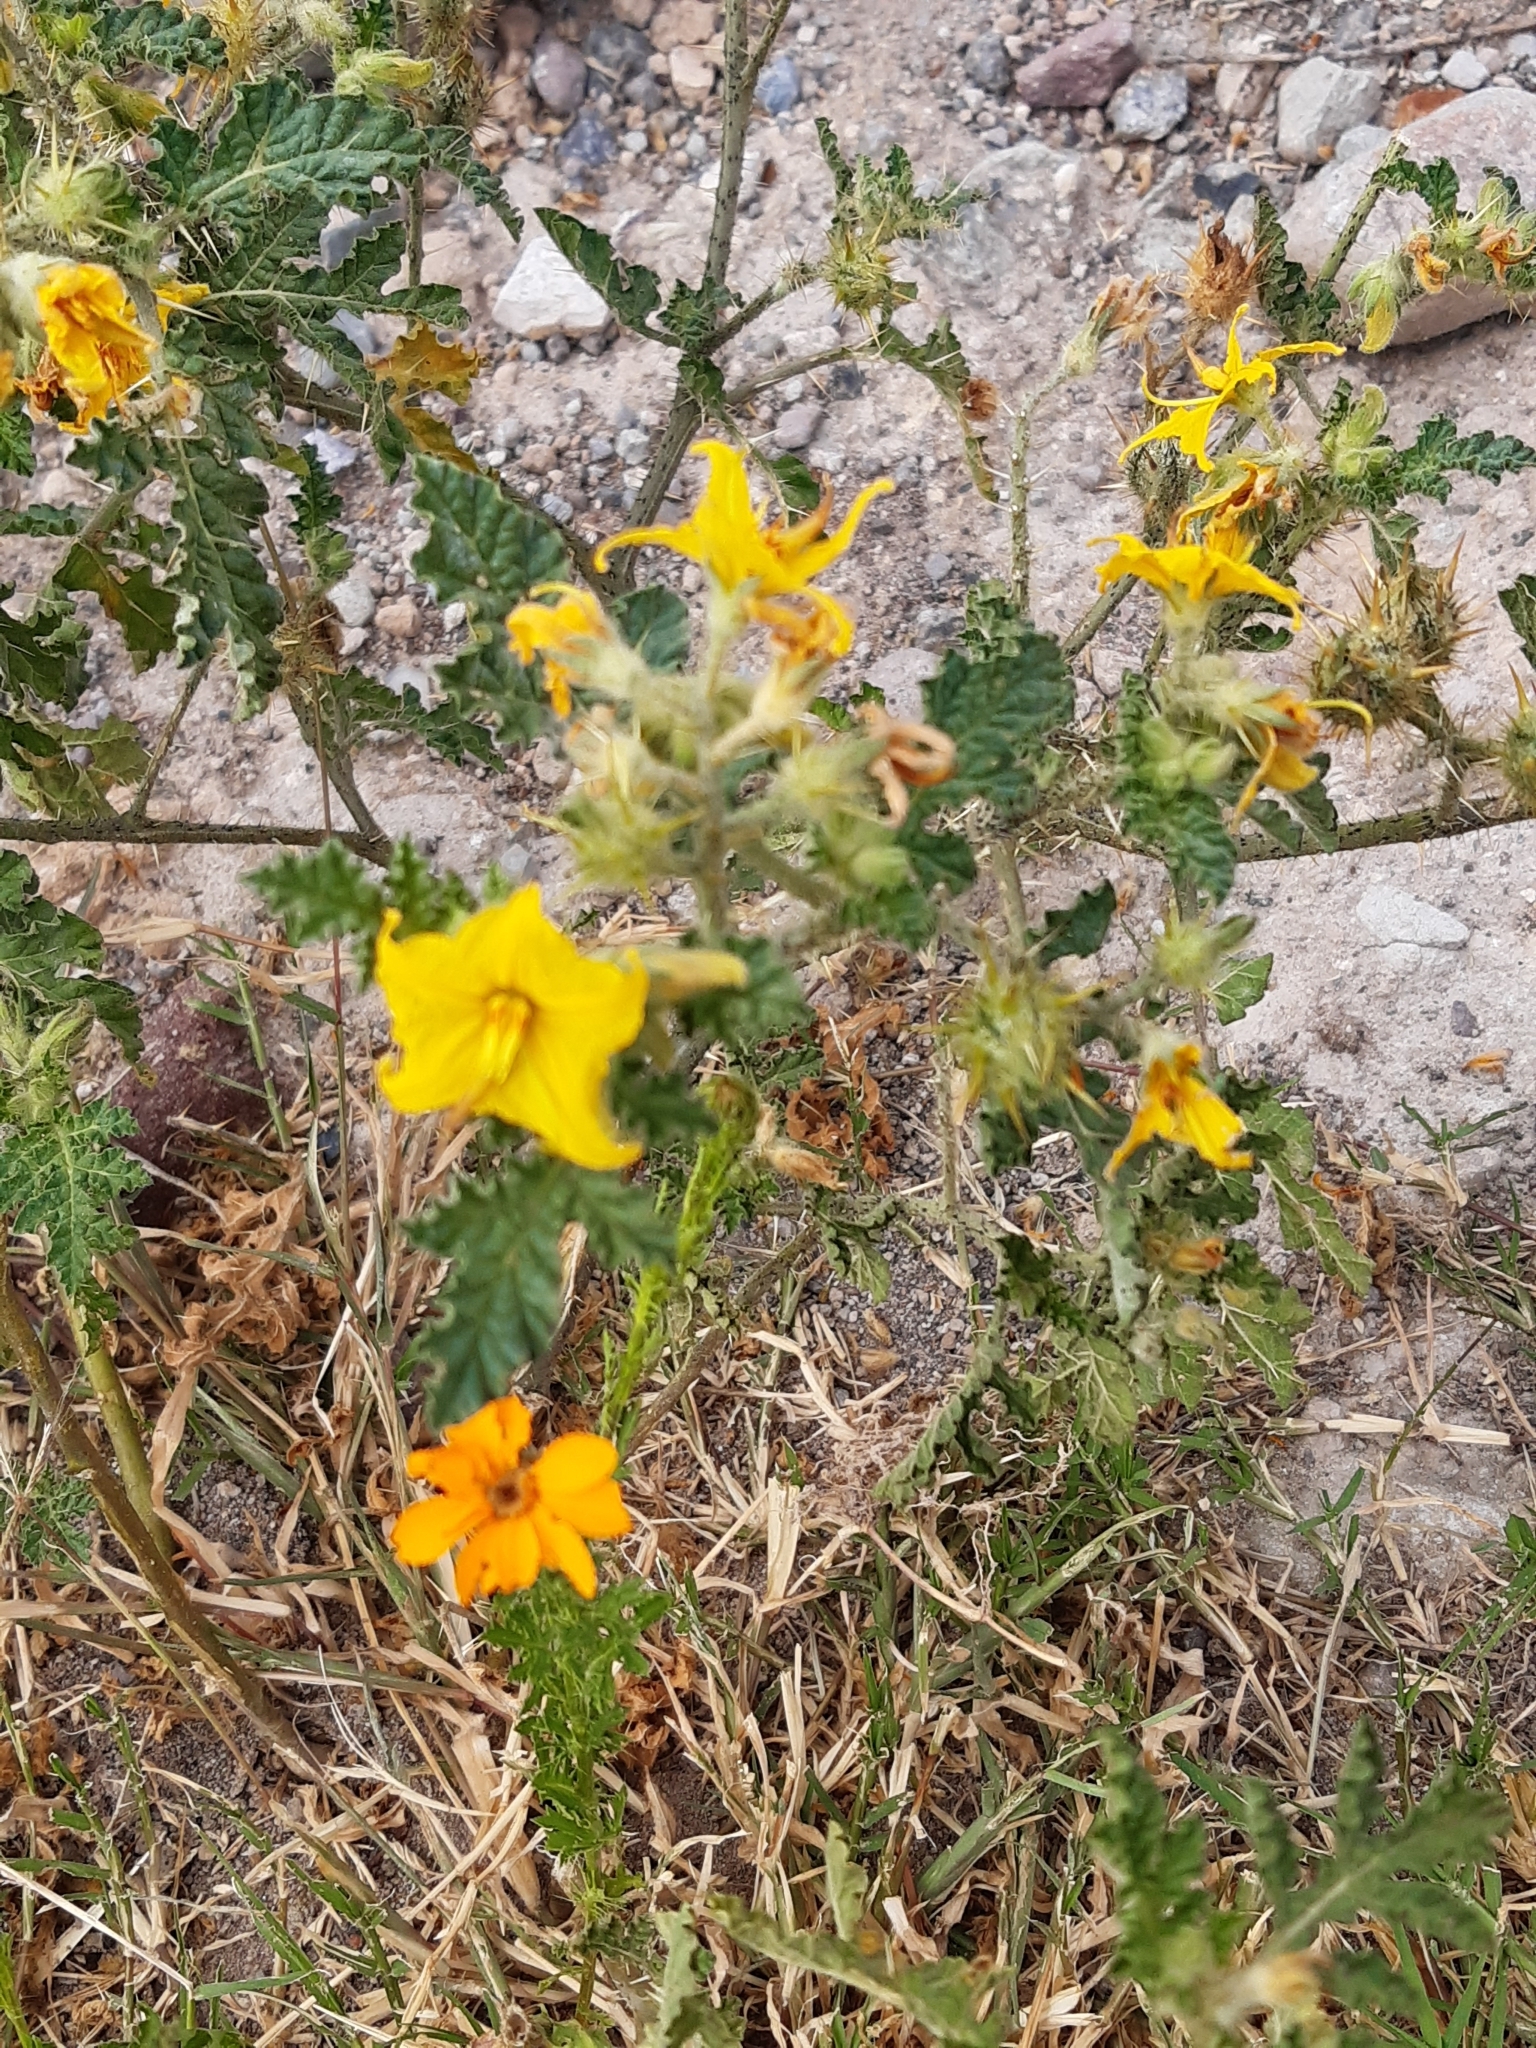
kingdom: Plantae
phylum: Tracheophyta
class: Magnoliopsida
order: Solanales
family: Solanaceae
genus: Solanum
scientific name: Solanum angustifolium
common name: Buffalobur nightshade
